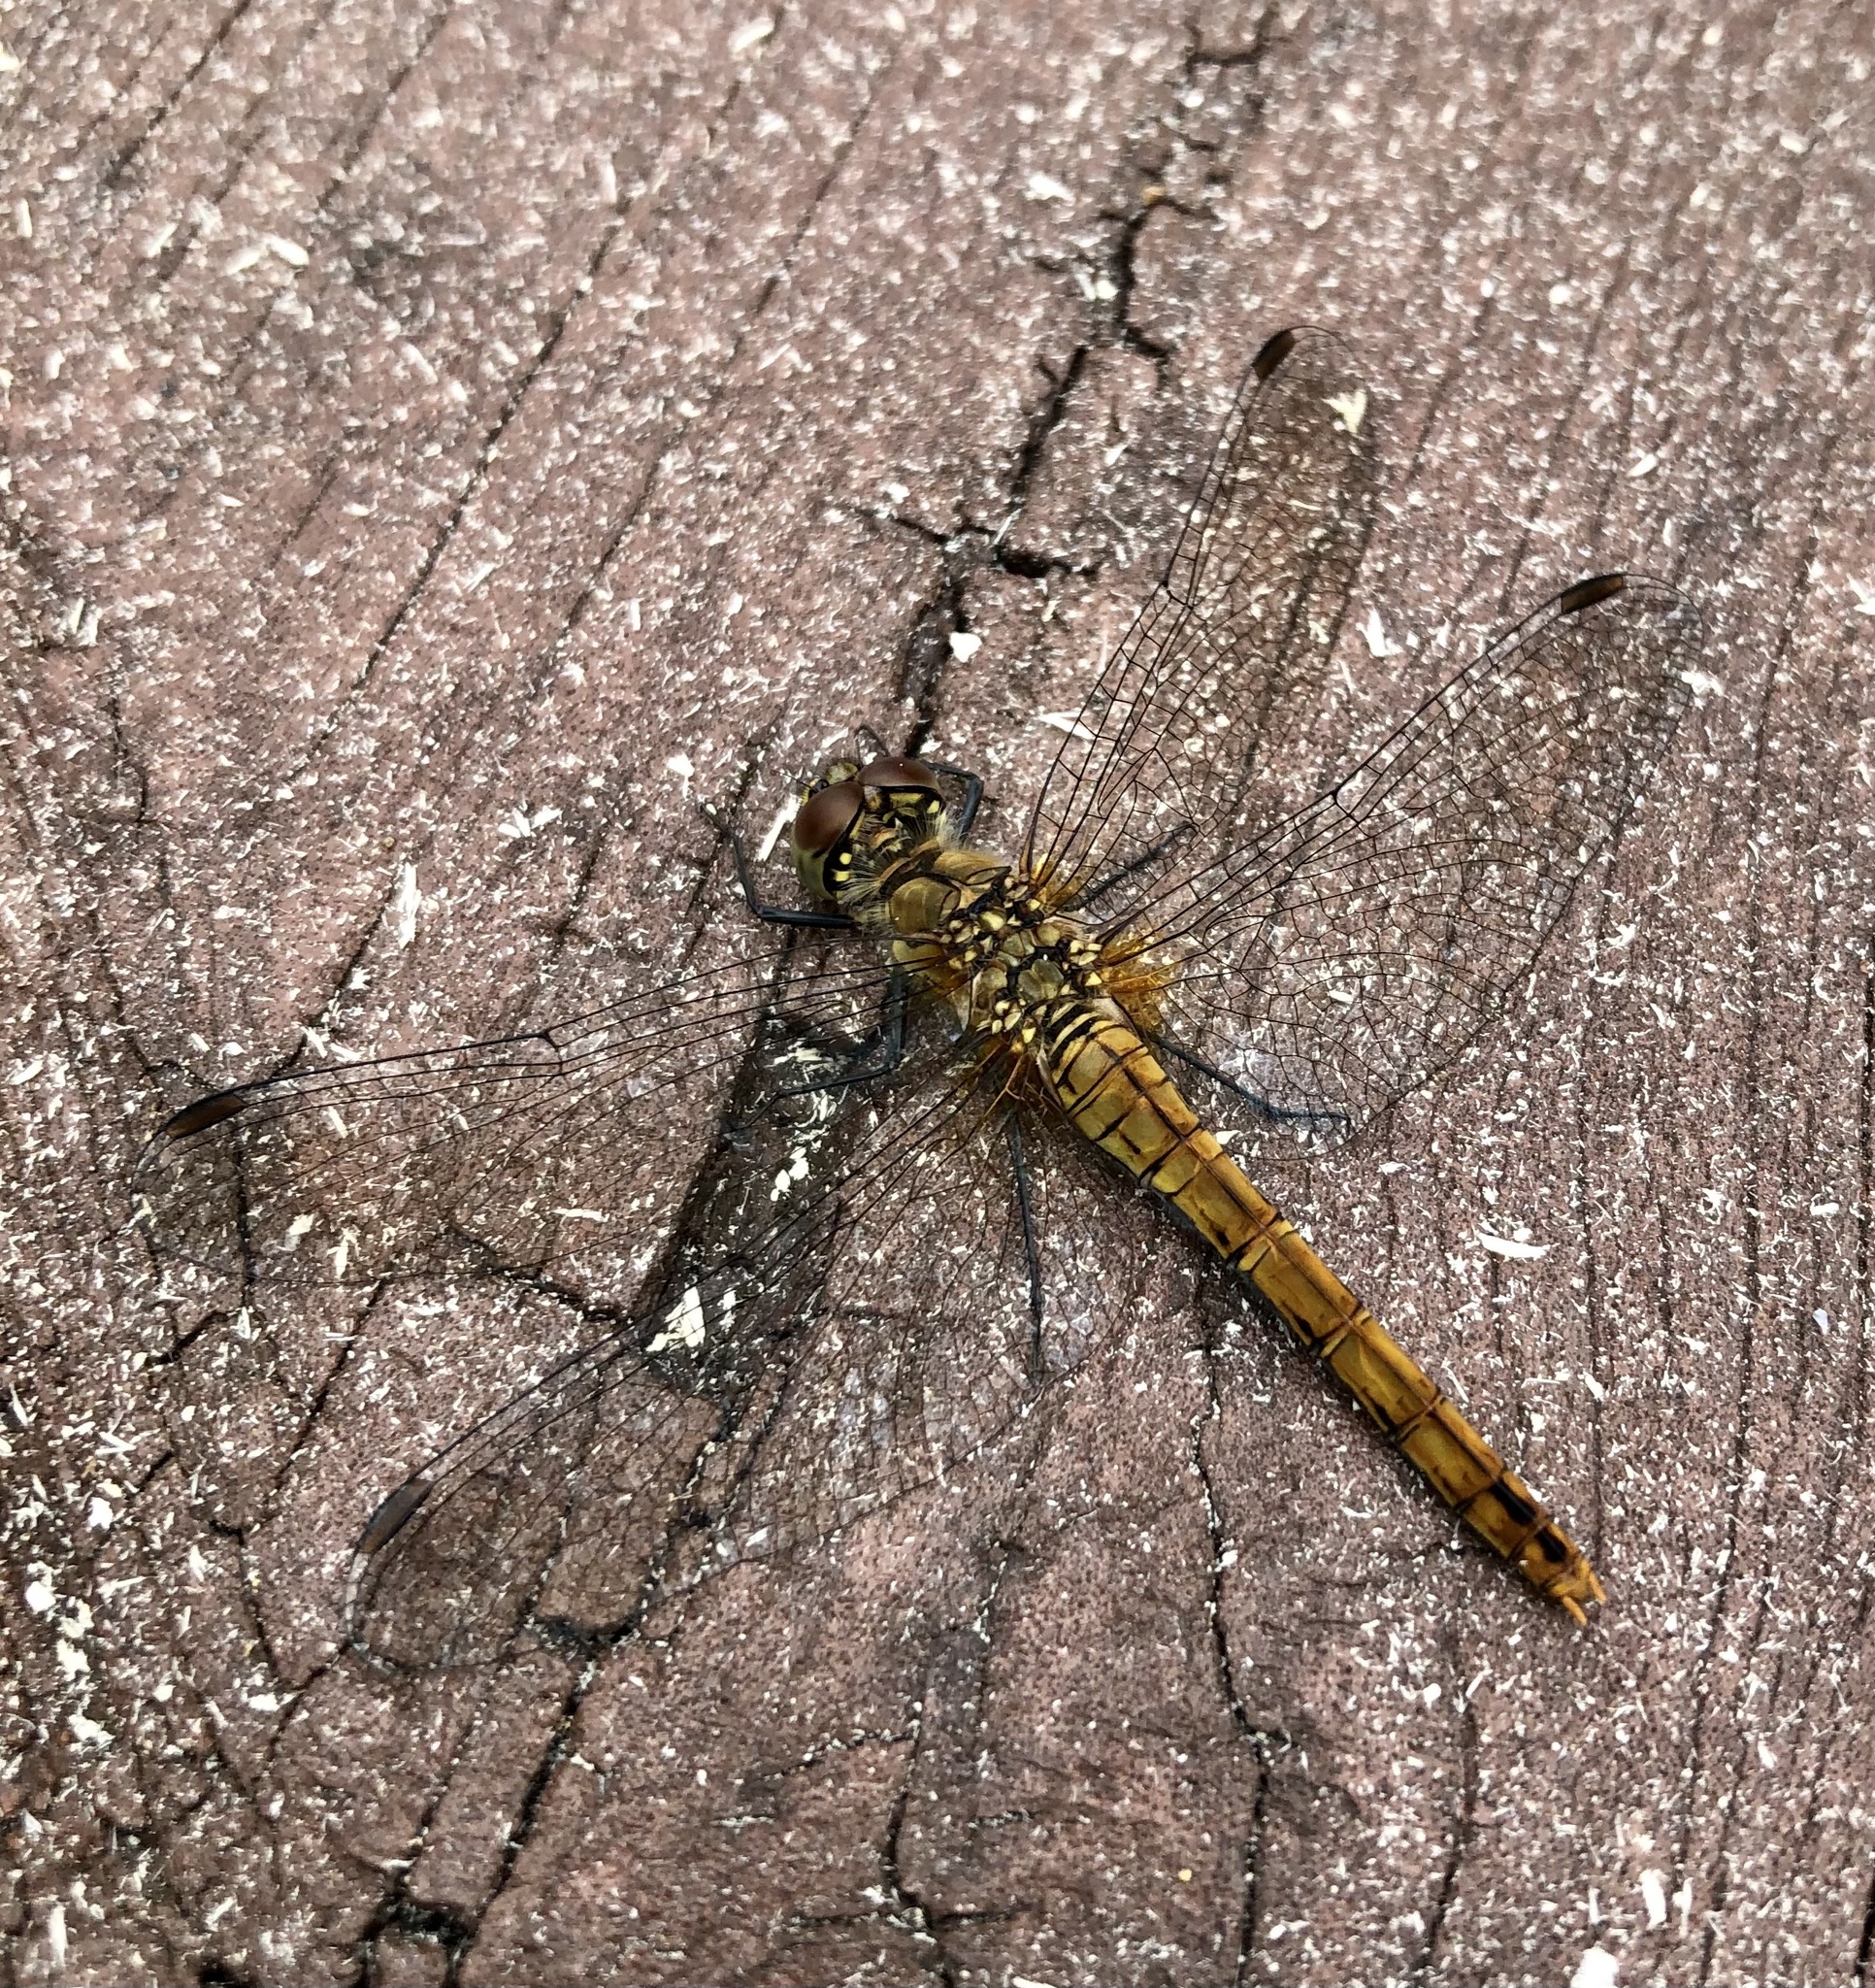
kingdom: Animalia
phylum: Arthropoda
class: Insecta
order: Odonata
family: Libellulidae
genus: Sympetrum
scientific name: Sympetrum sanguineum
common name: Ruddy darter
